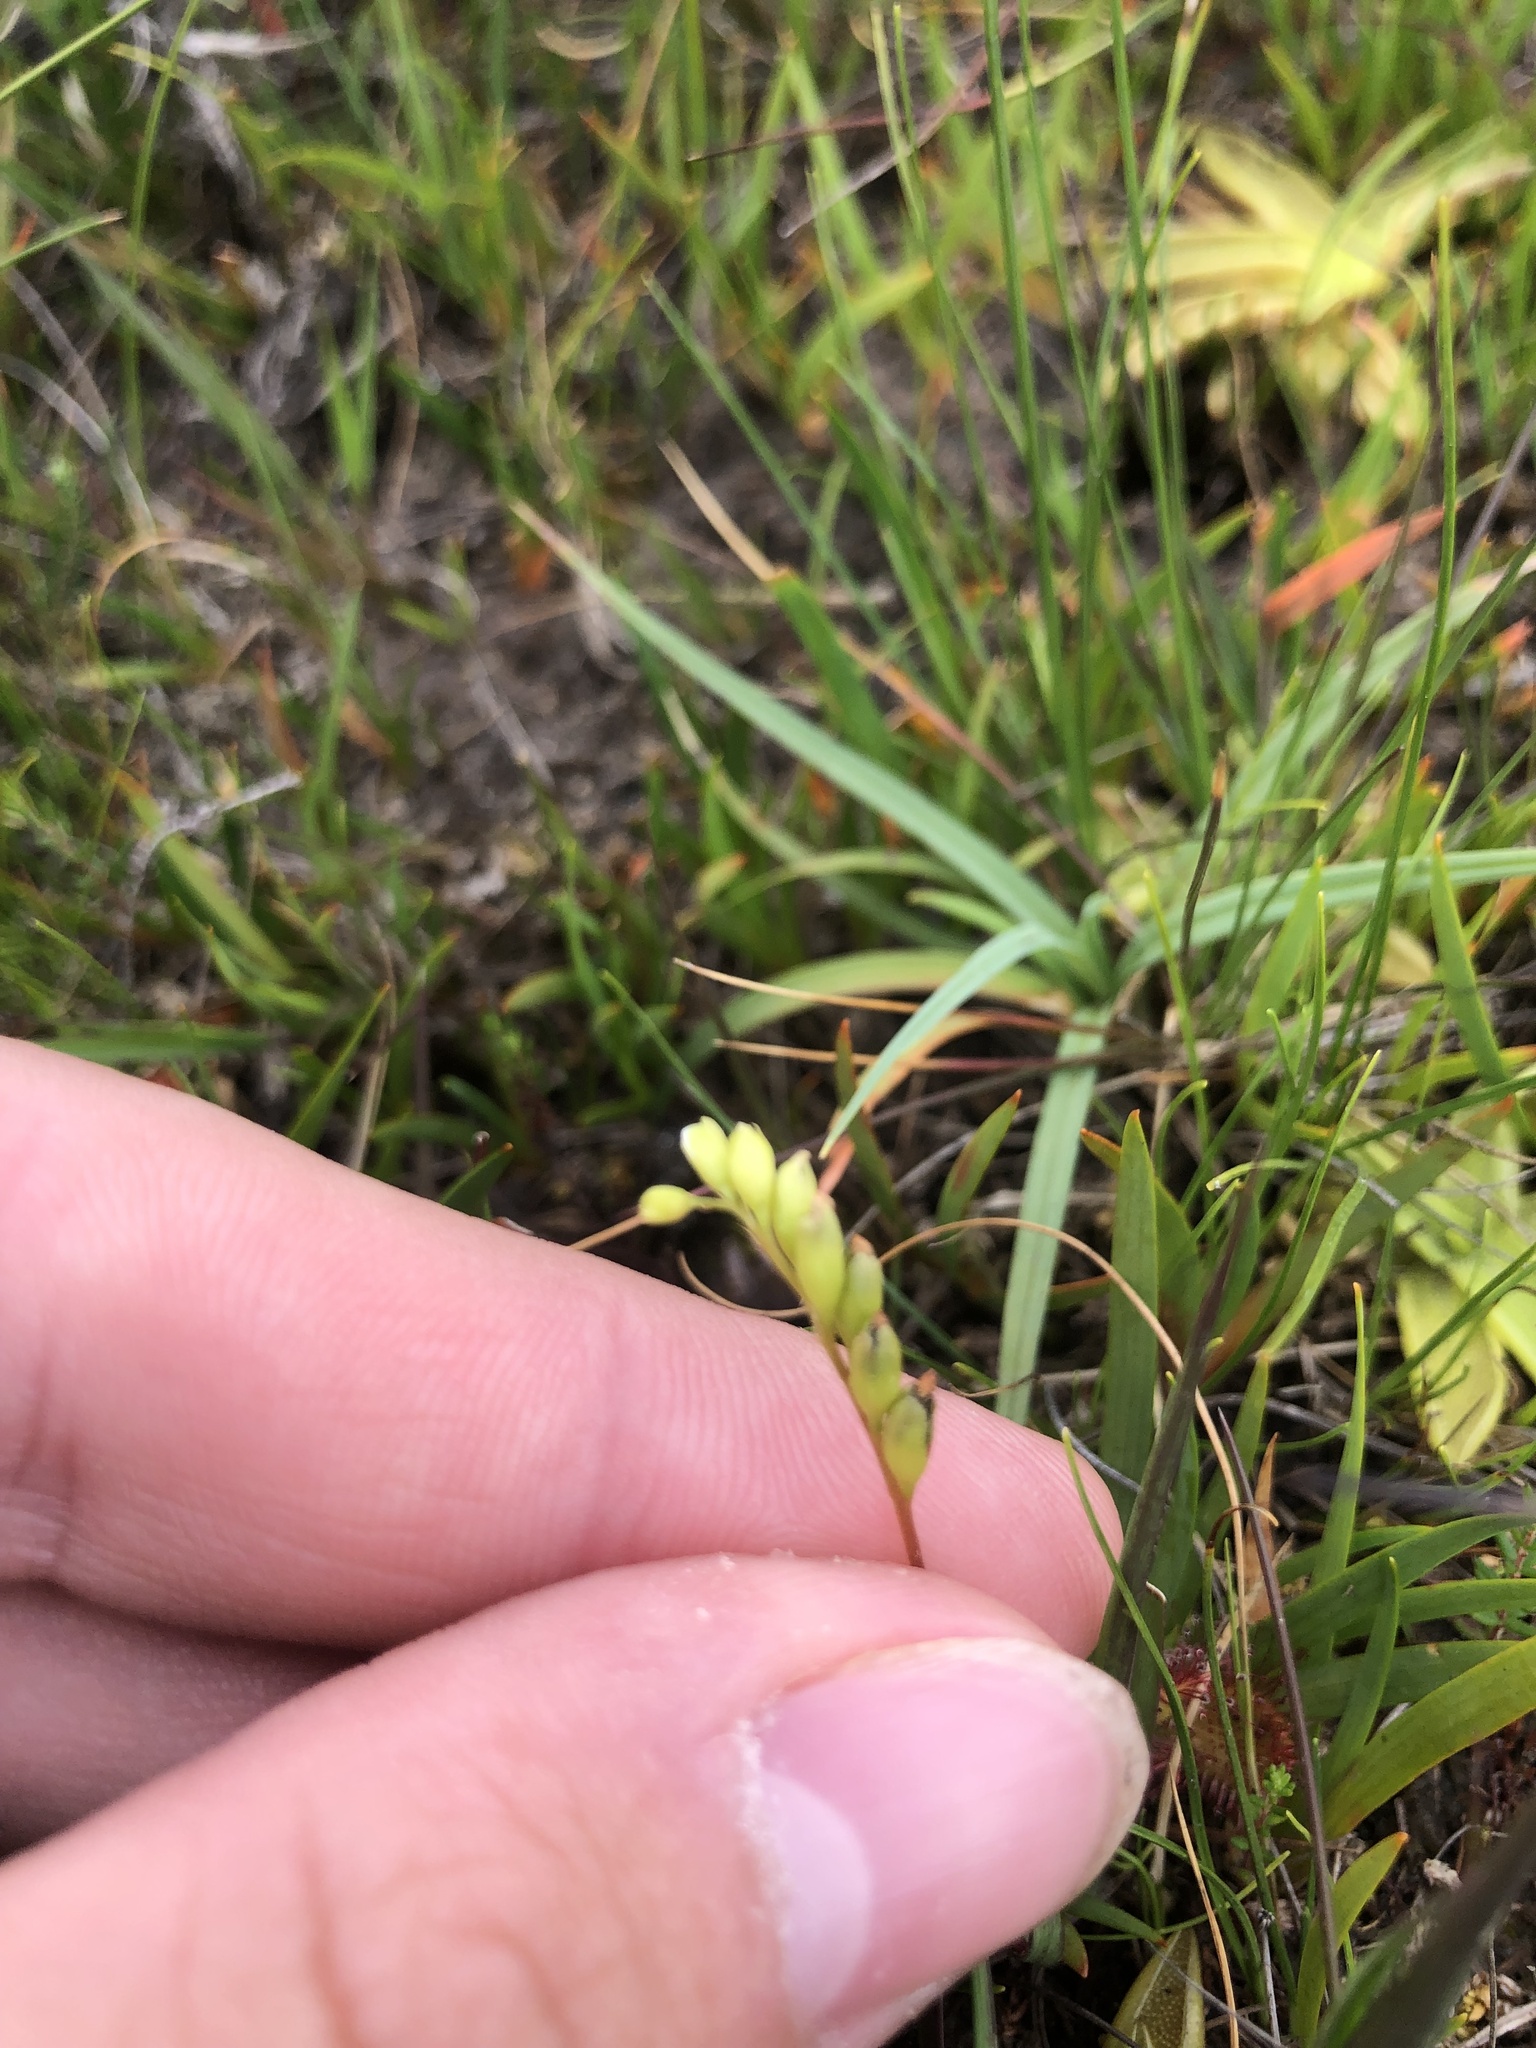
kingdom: Plantae
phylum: Tracheophyta
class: Magnoliopsida
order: Caryophyllales
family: Droseraceae
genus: Drosera
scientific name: Drosera rotundifolia
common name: Round-leaved sundew
